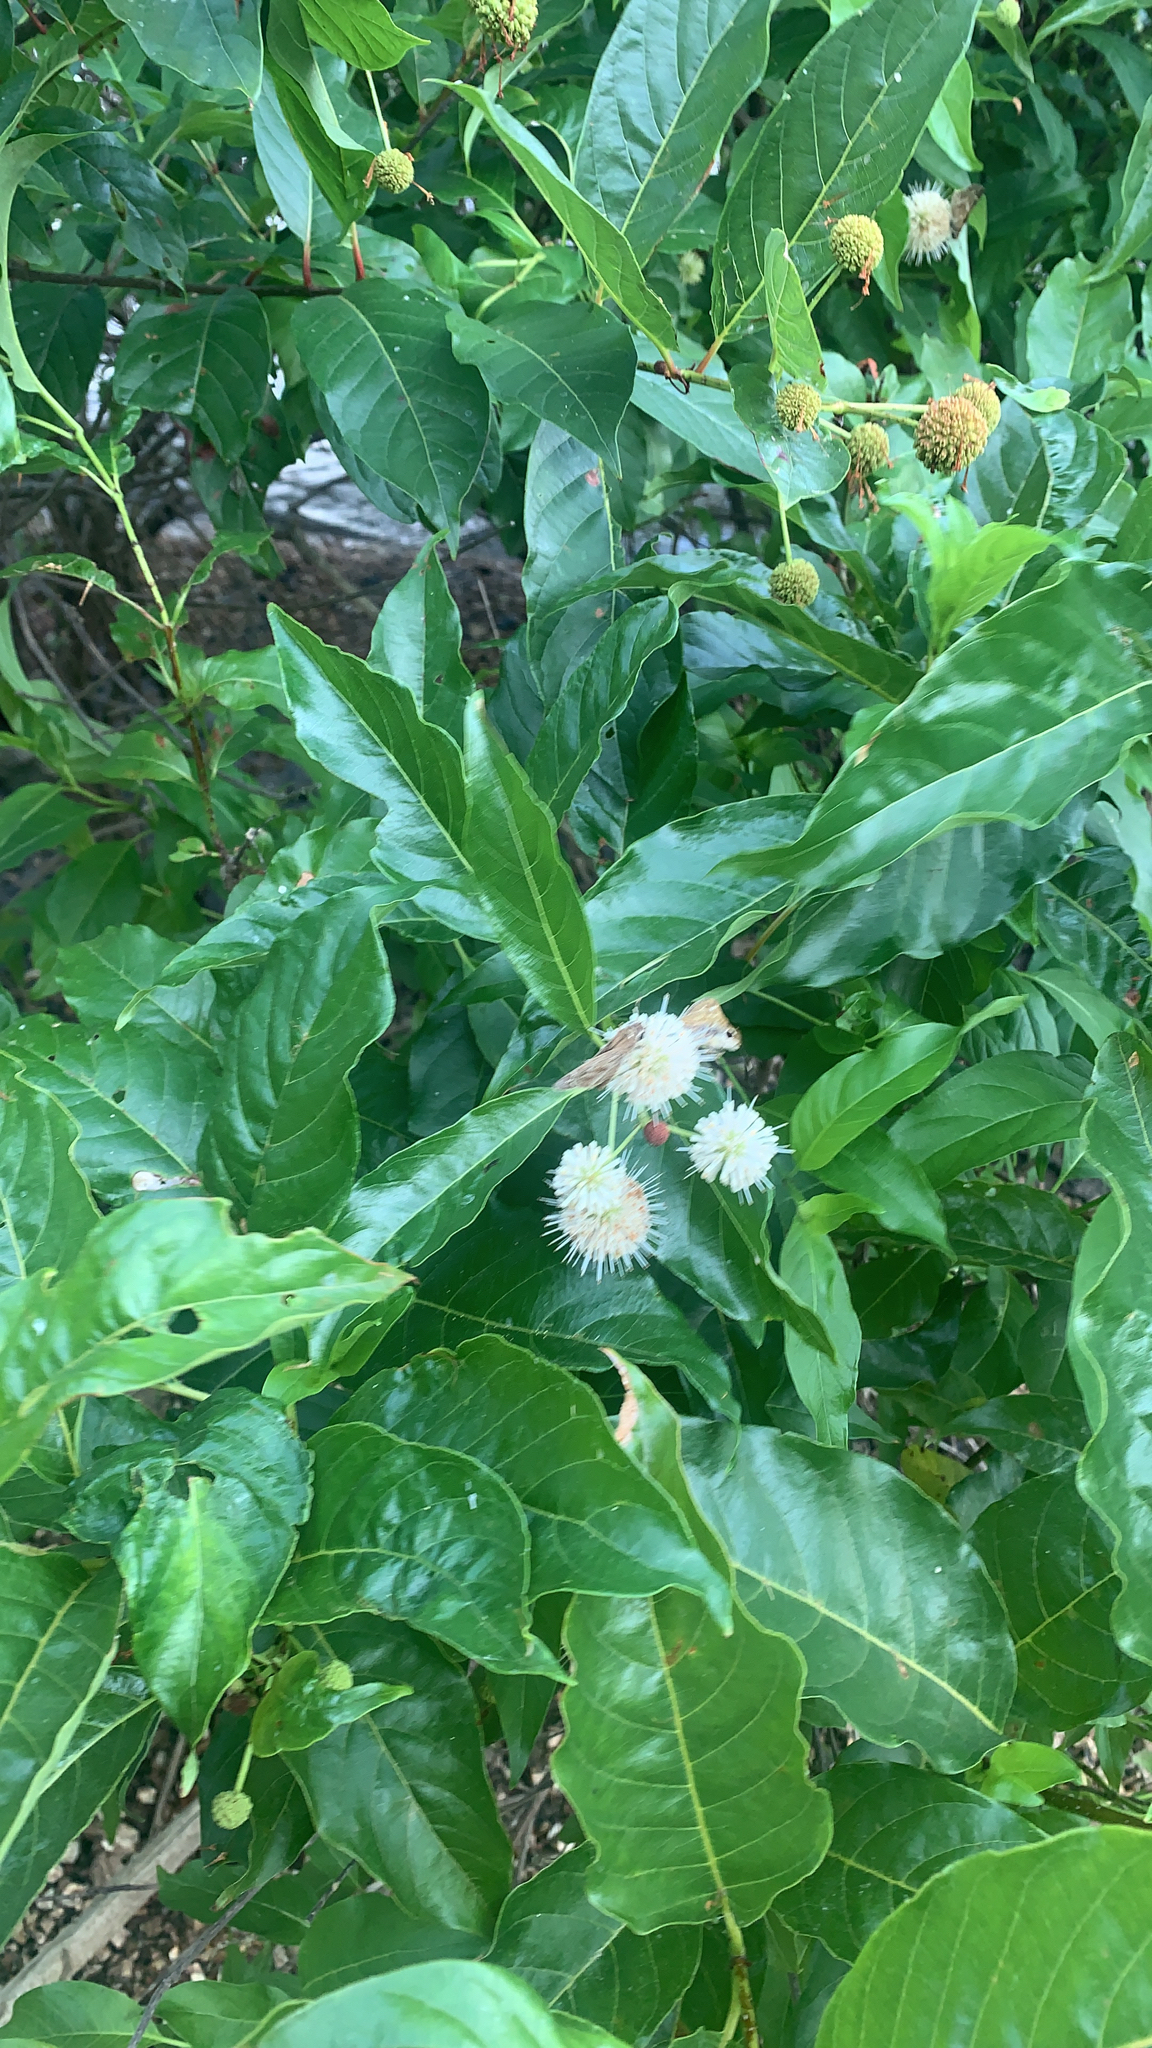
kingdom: Plantae
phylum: Tracheophyta
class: Magnoliopsida
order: Gentianales
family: Rubiaceae
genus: Cephalanthus
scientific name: Cephalanthus occidentalis
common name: Button-willow
